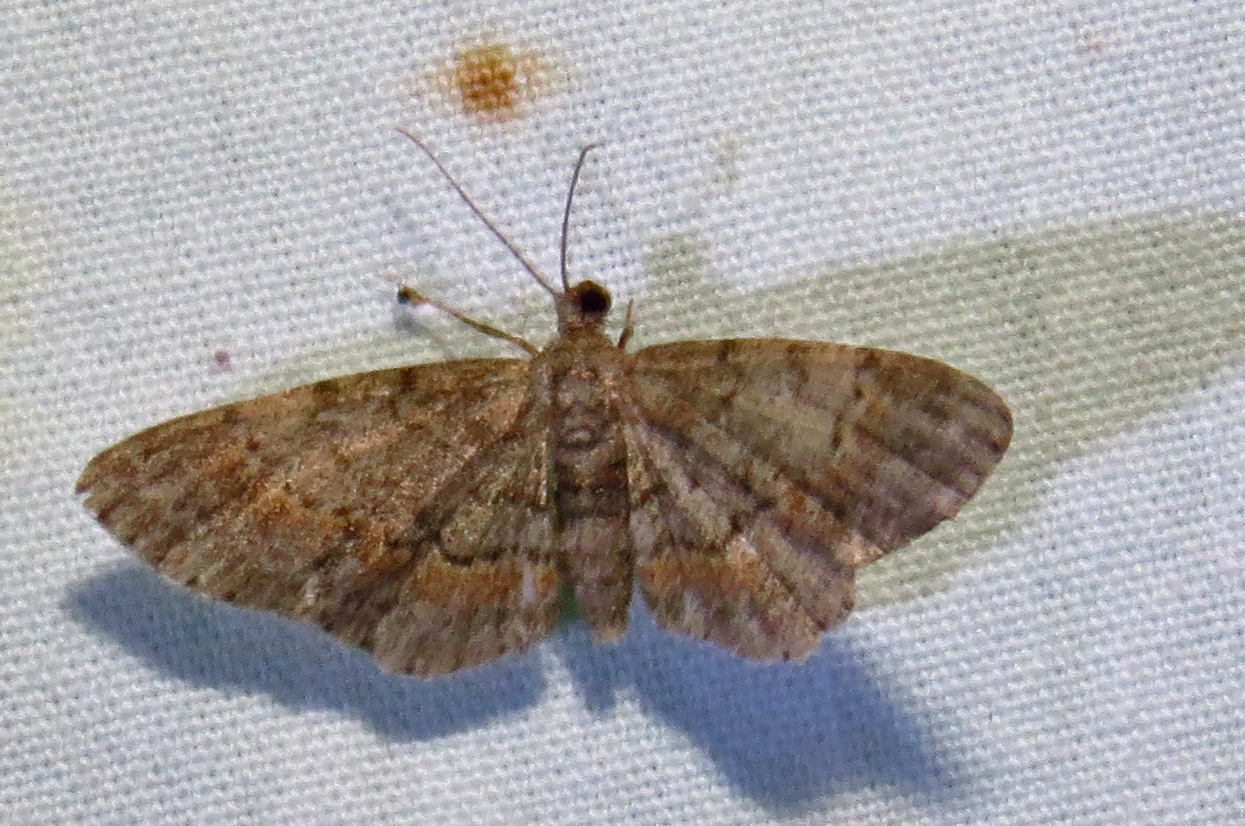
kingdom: Animalia
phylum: Arthropoda
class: Insecta
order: Lepidoptera
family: Geometridae
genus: Glenoides
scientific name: Glenoides texanaria
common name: Texas gray
